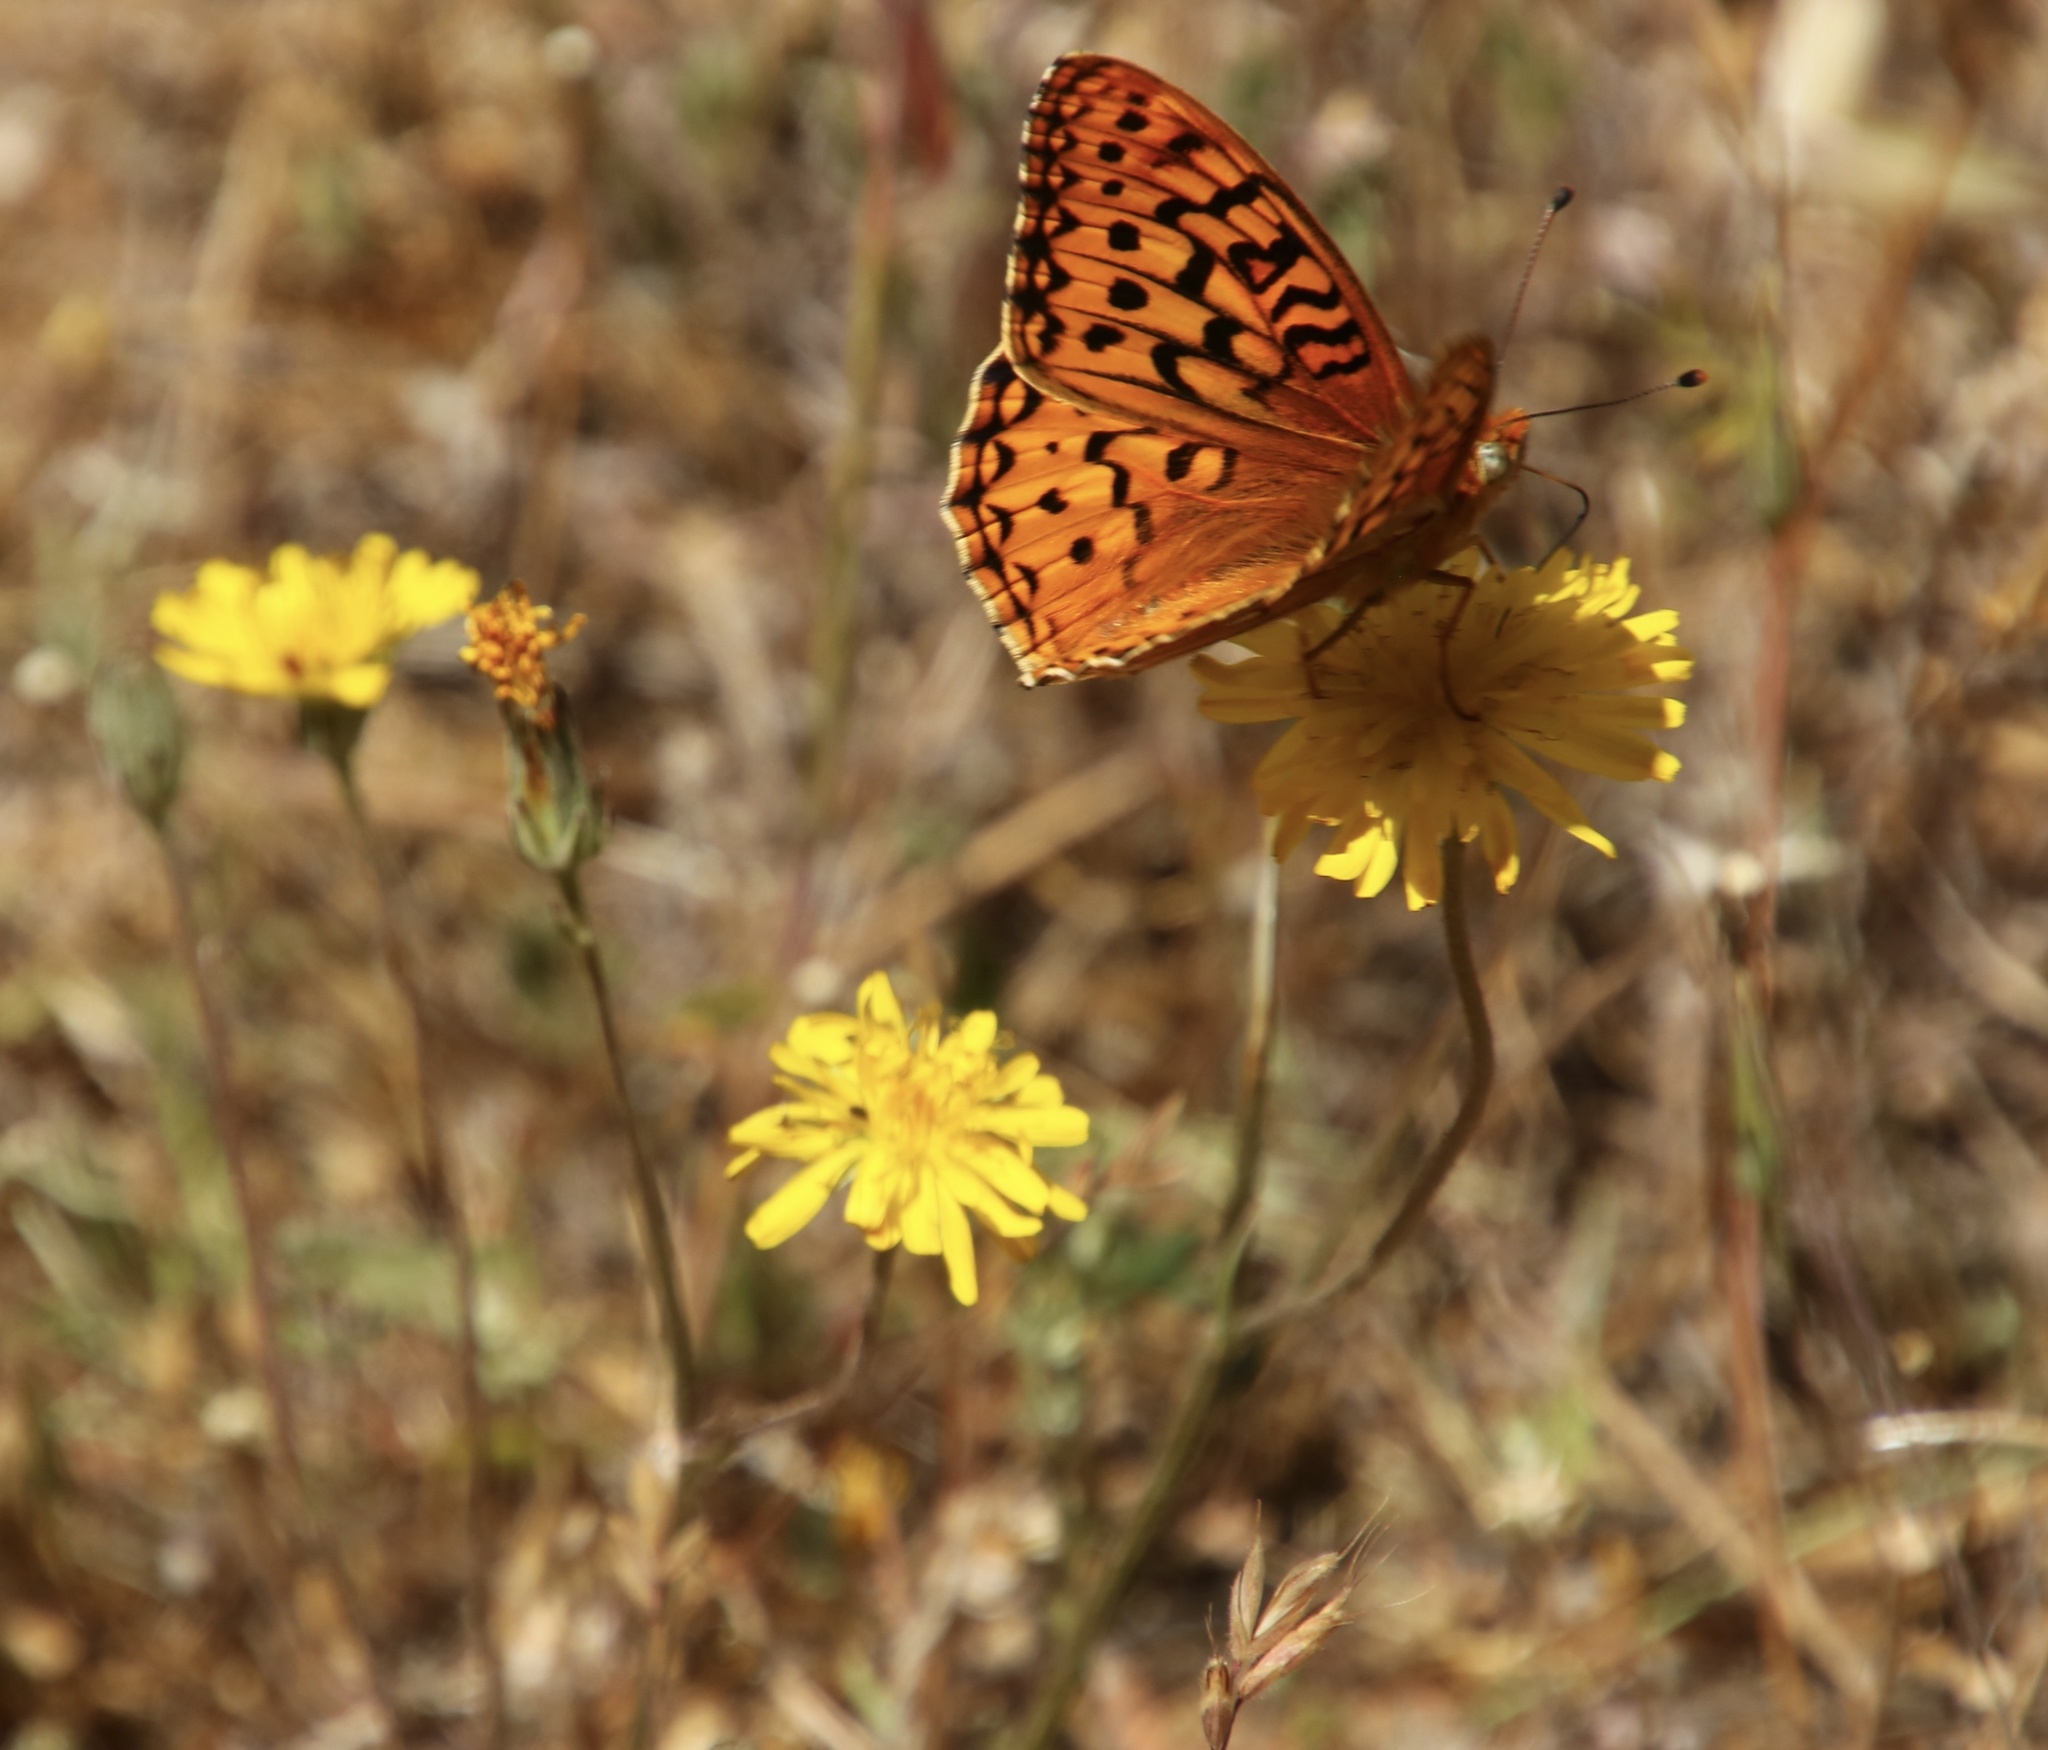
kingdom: Animalia
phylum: Arthropoda
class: Insecta
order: Lepidoptera
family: Nymphalidae
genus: Argynnis
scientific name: Argynnis coronis
